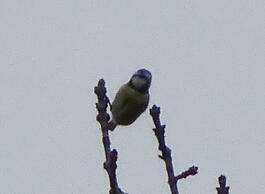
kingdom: Animalia
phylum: Chordata
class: Aves
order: Passeriformes
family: Paridae
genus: Cyanistes
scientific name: Cyanistes caeruleus
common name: Eurasian blue tit
